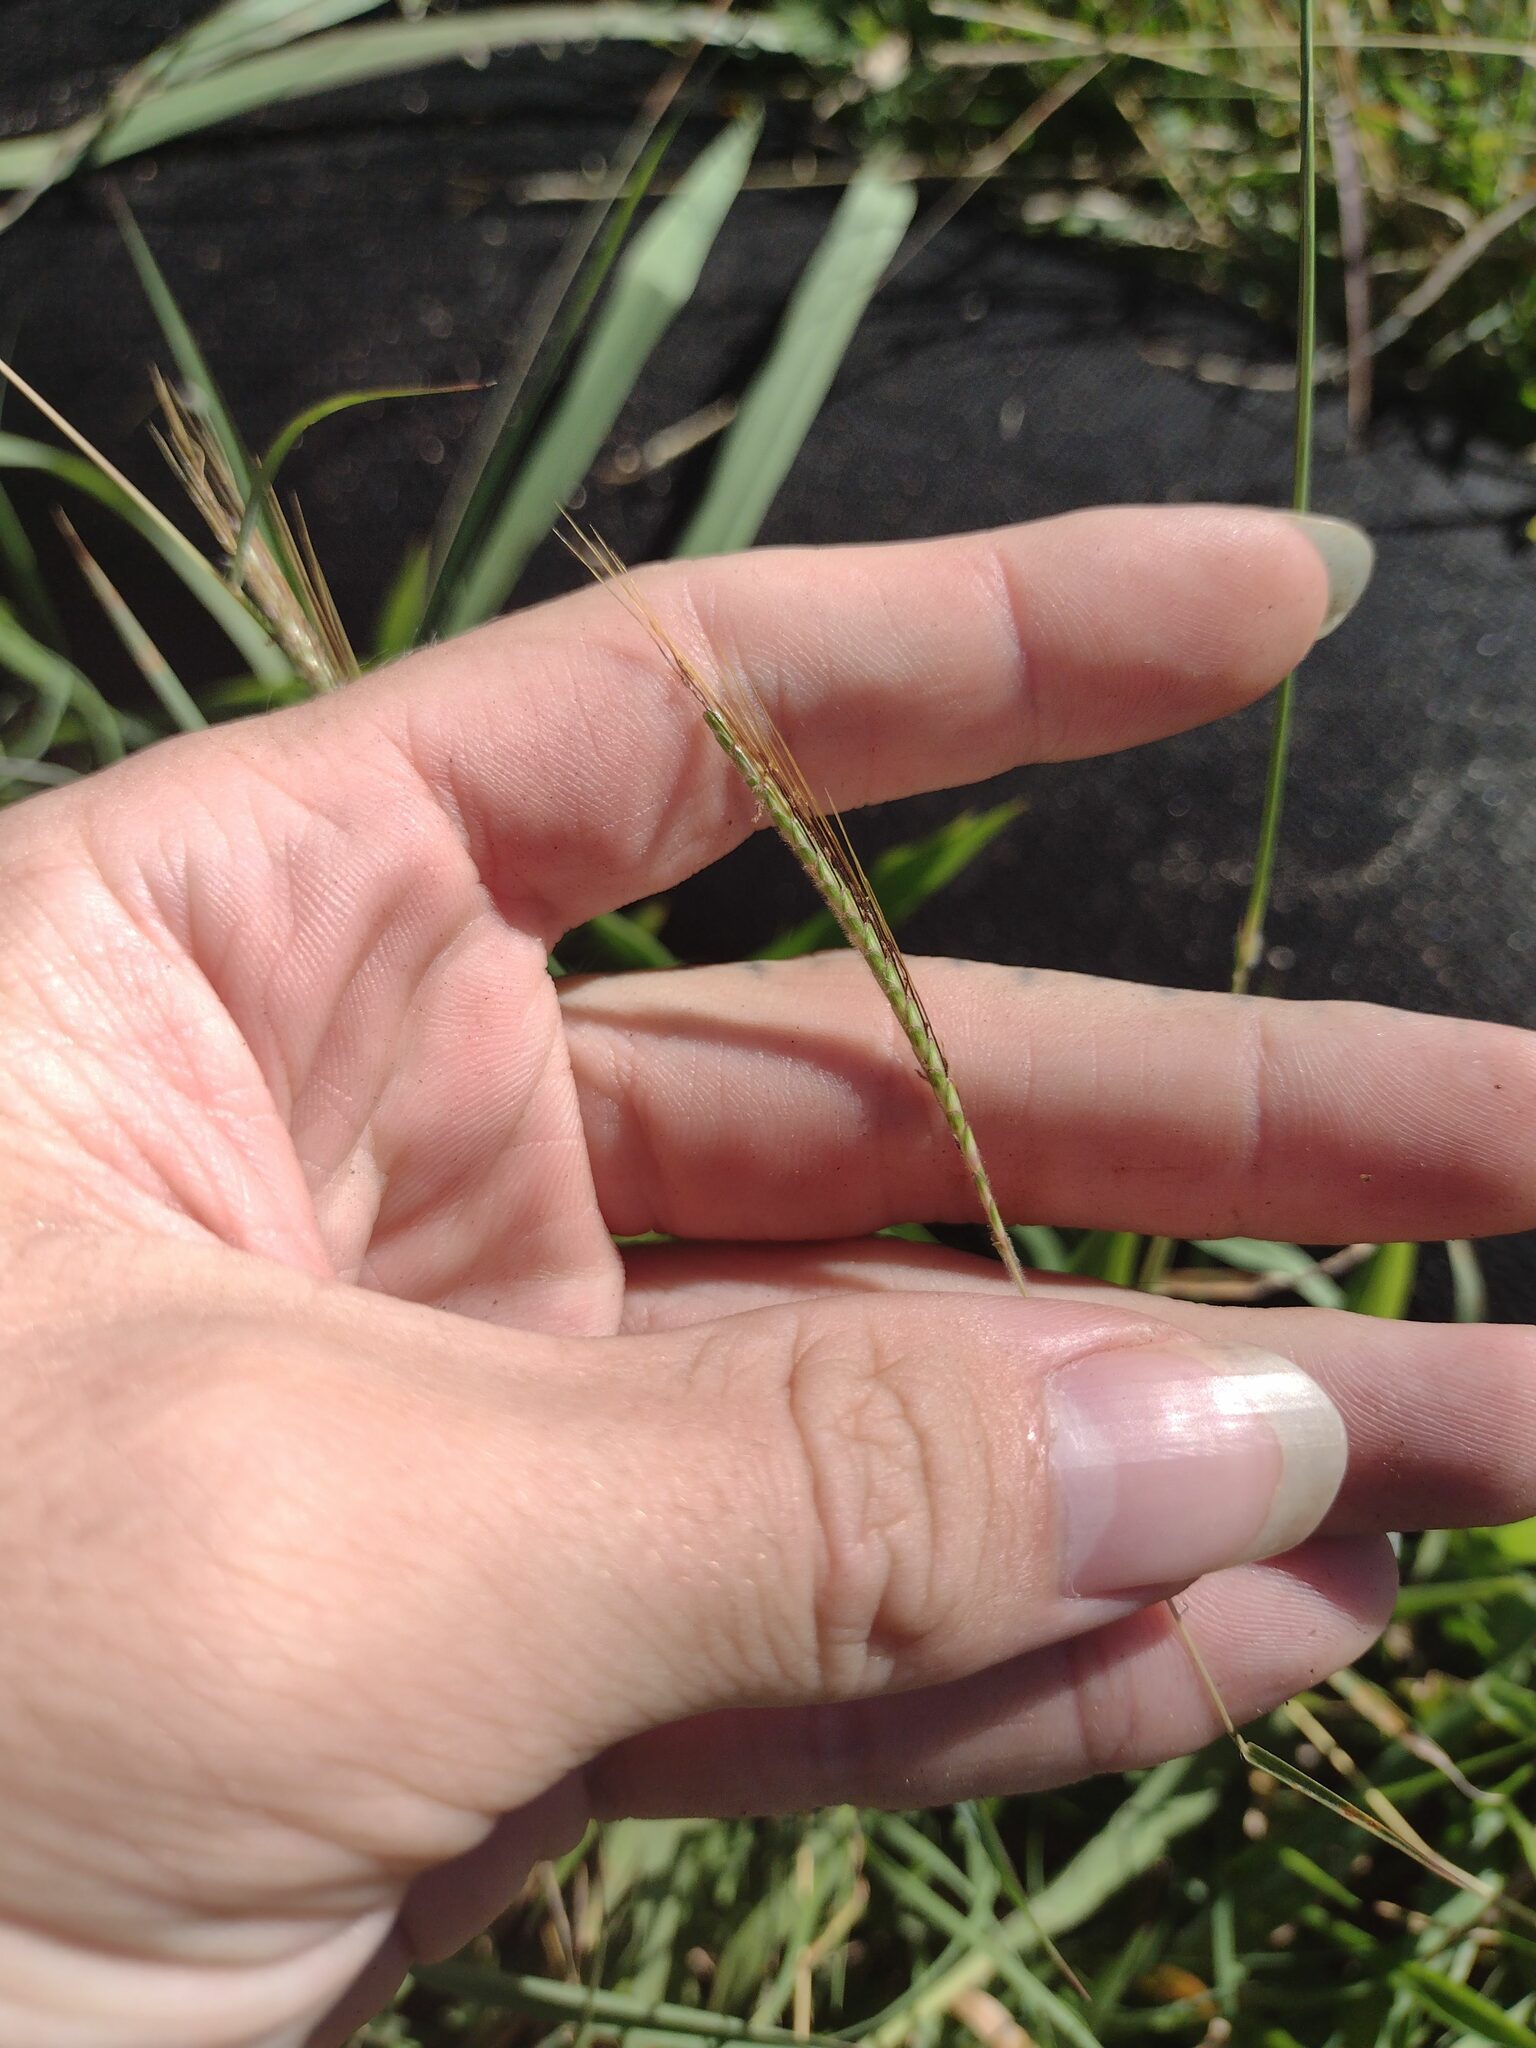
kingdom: Plantae
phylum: Tracheophyta
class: Liliopsida
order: Poales
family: Poaceae
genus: Dichanthium
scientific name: Dichanthium aristatum
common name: Angleton bluestem
